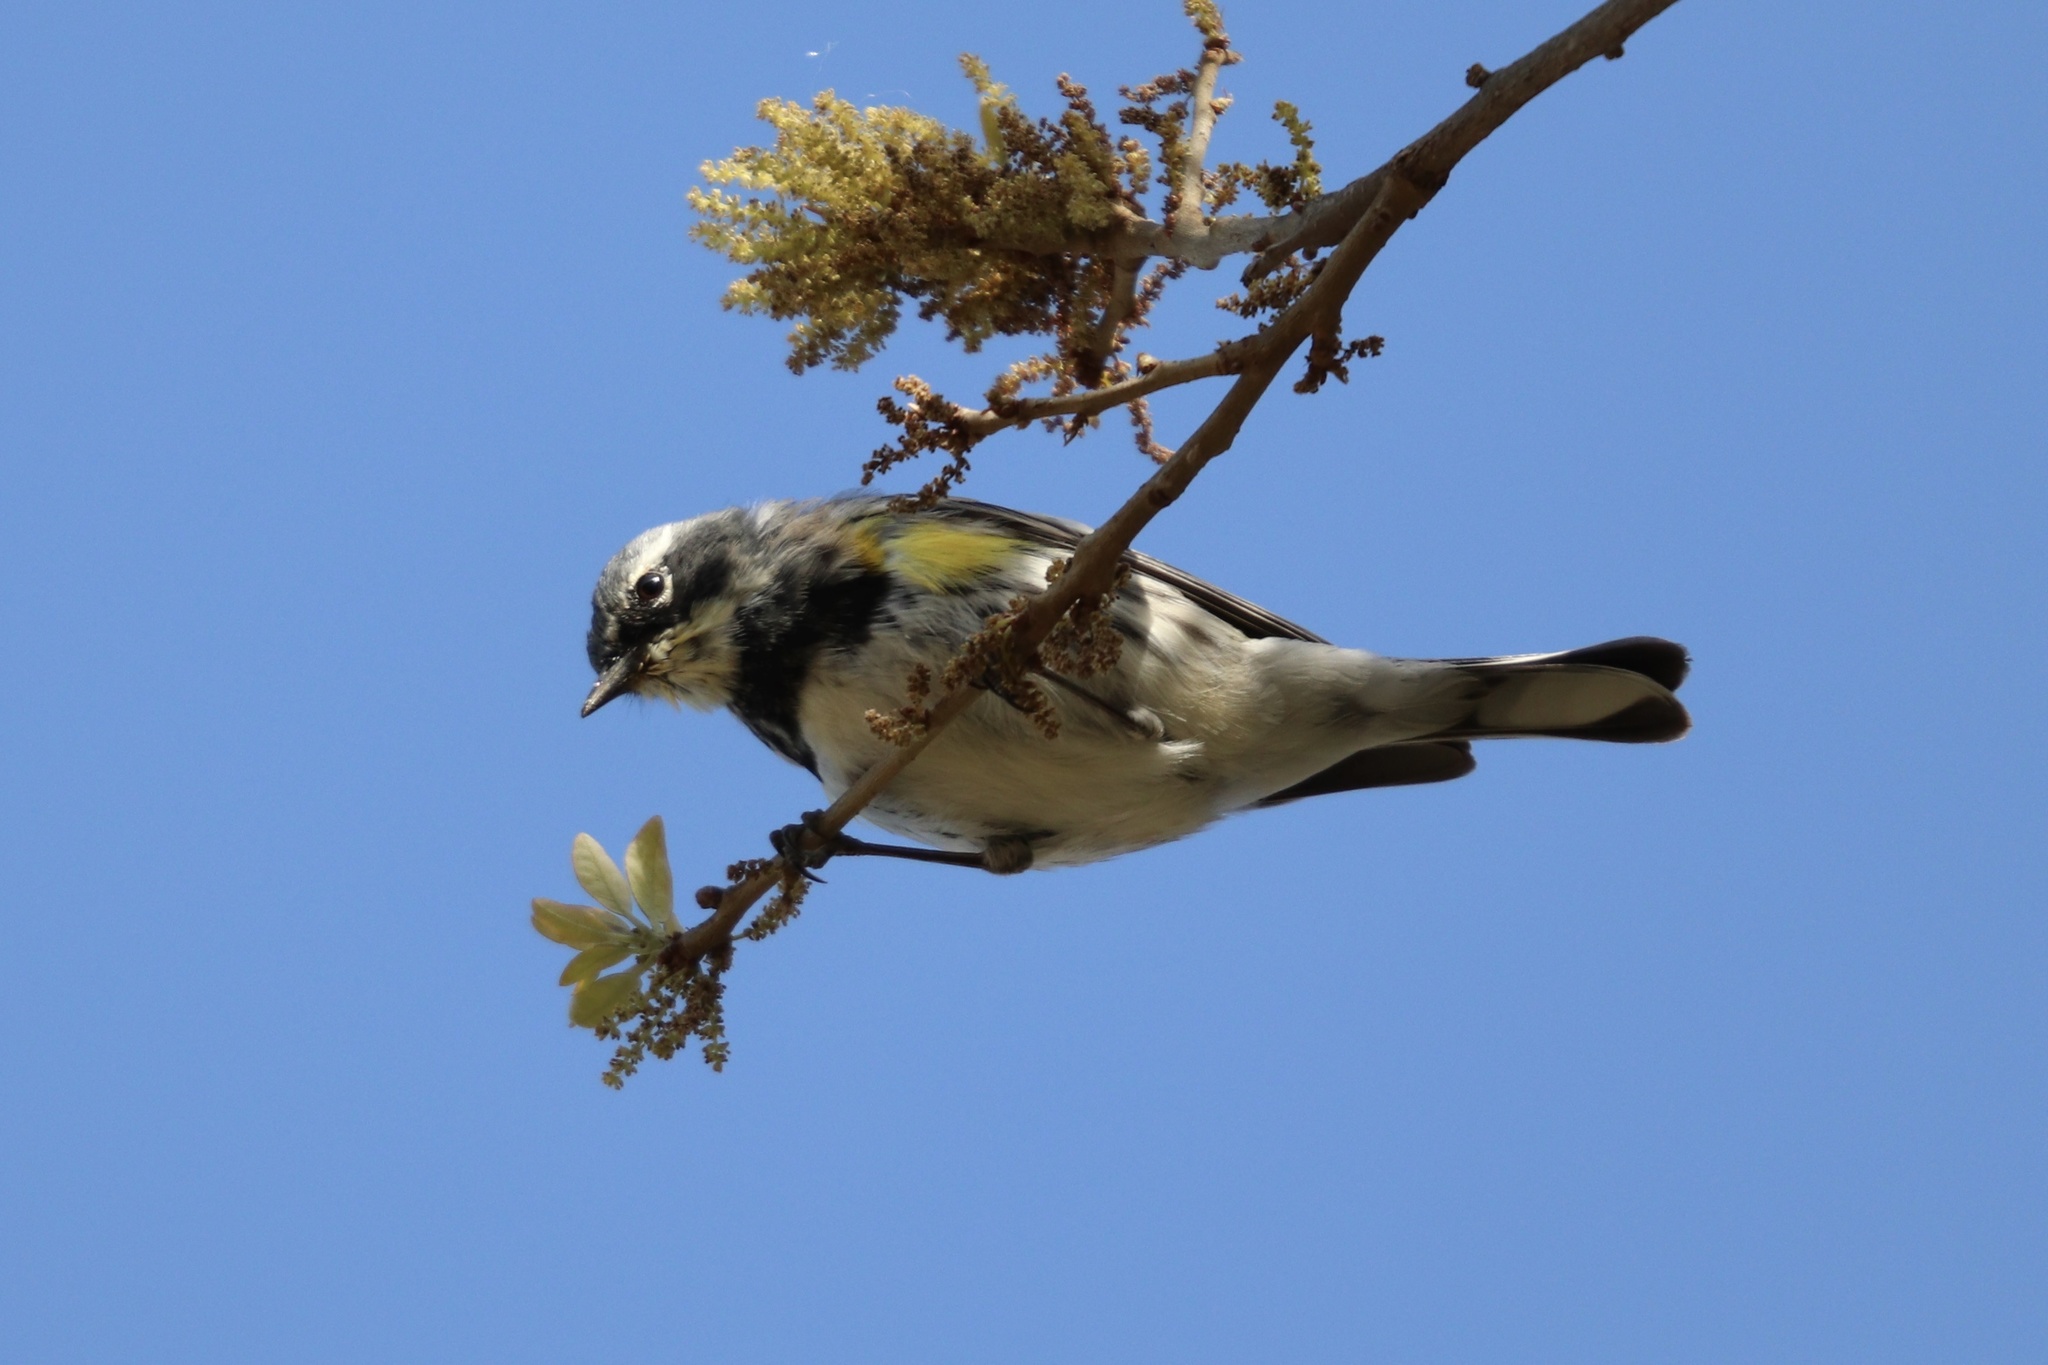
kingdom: Animalia
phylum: Chordata
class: Aves
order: Passeriformes
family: Parulidae
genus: Setophaga
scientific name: Setophaga coronata
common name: Myrtle warbler
